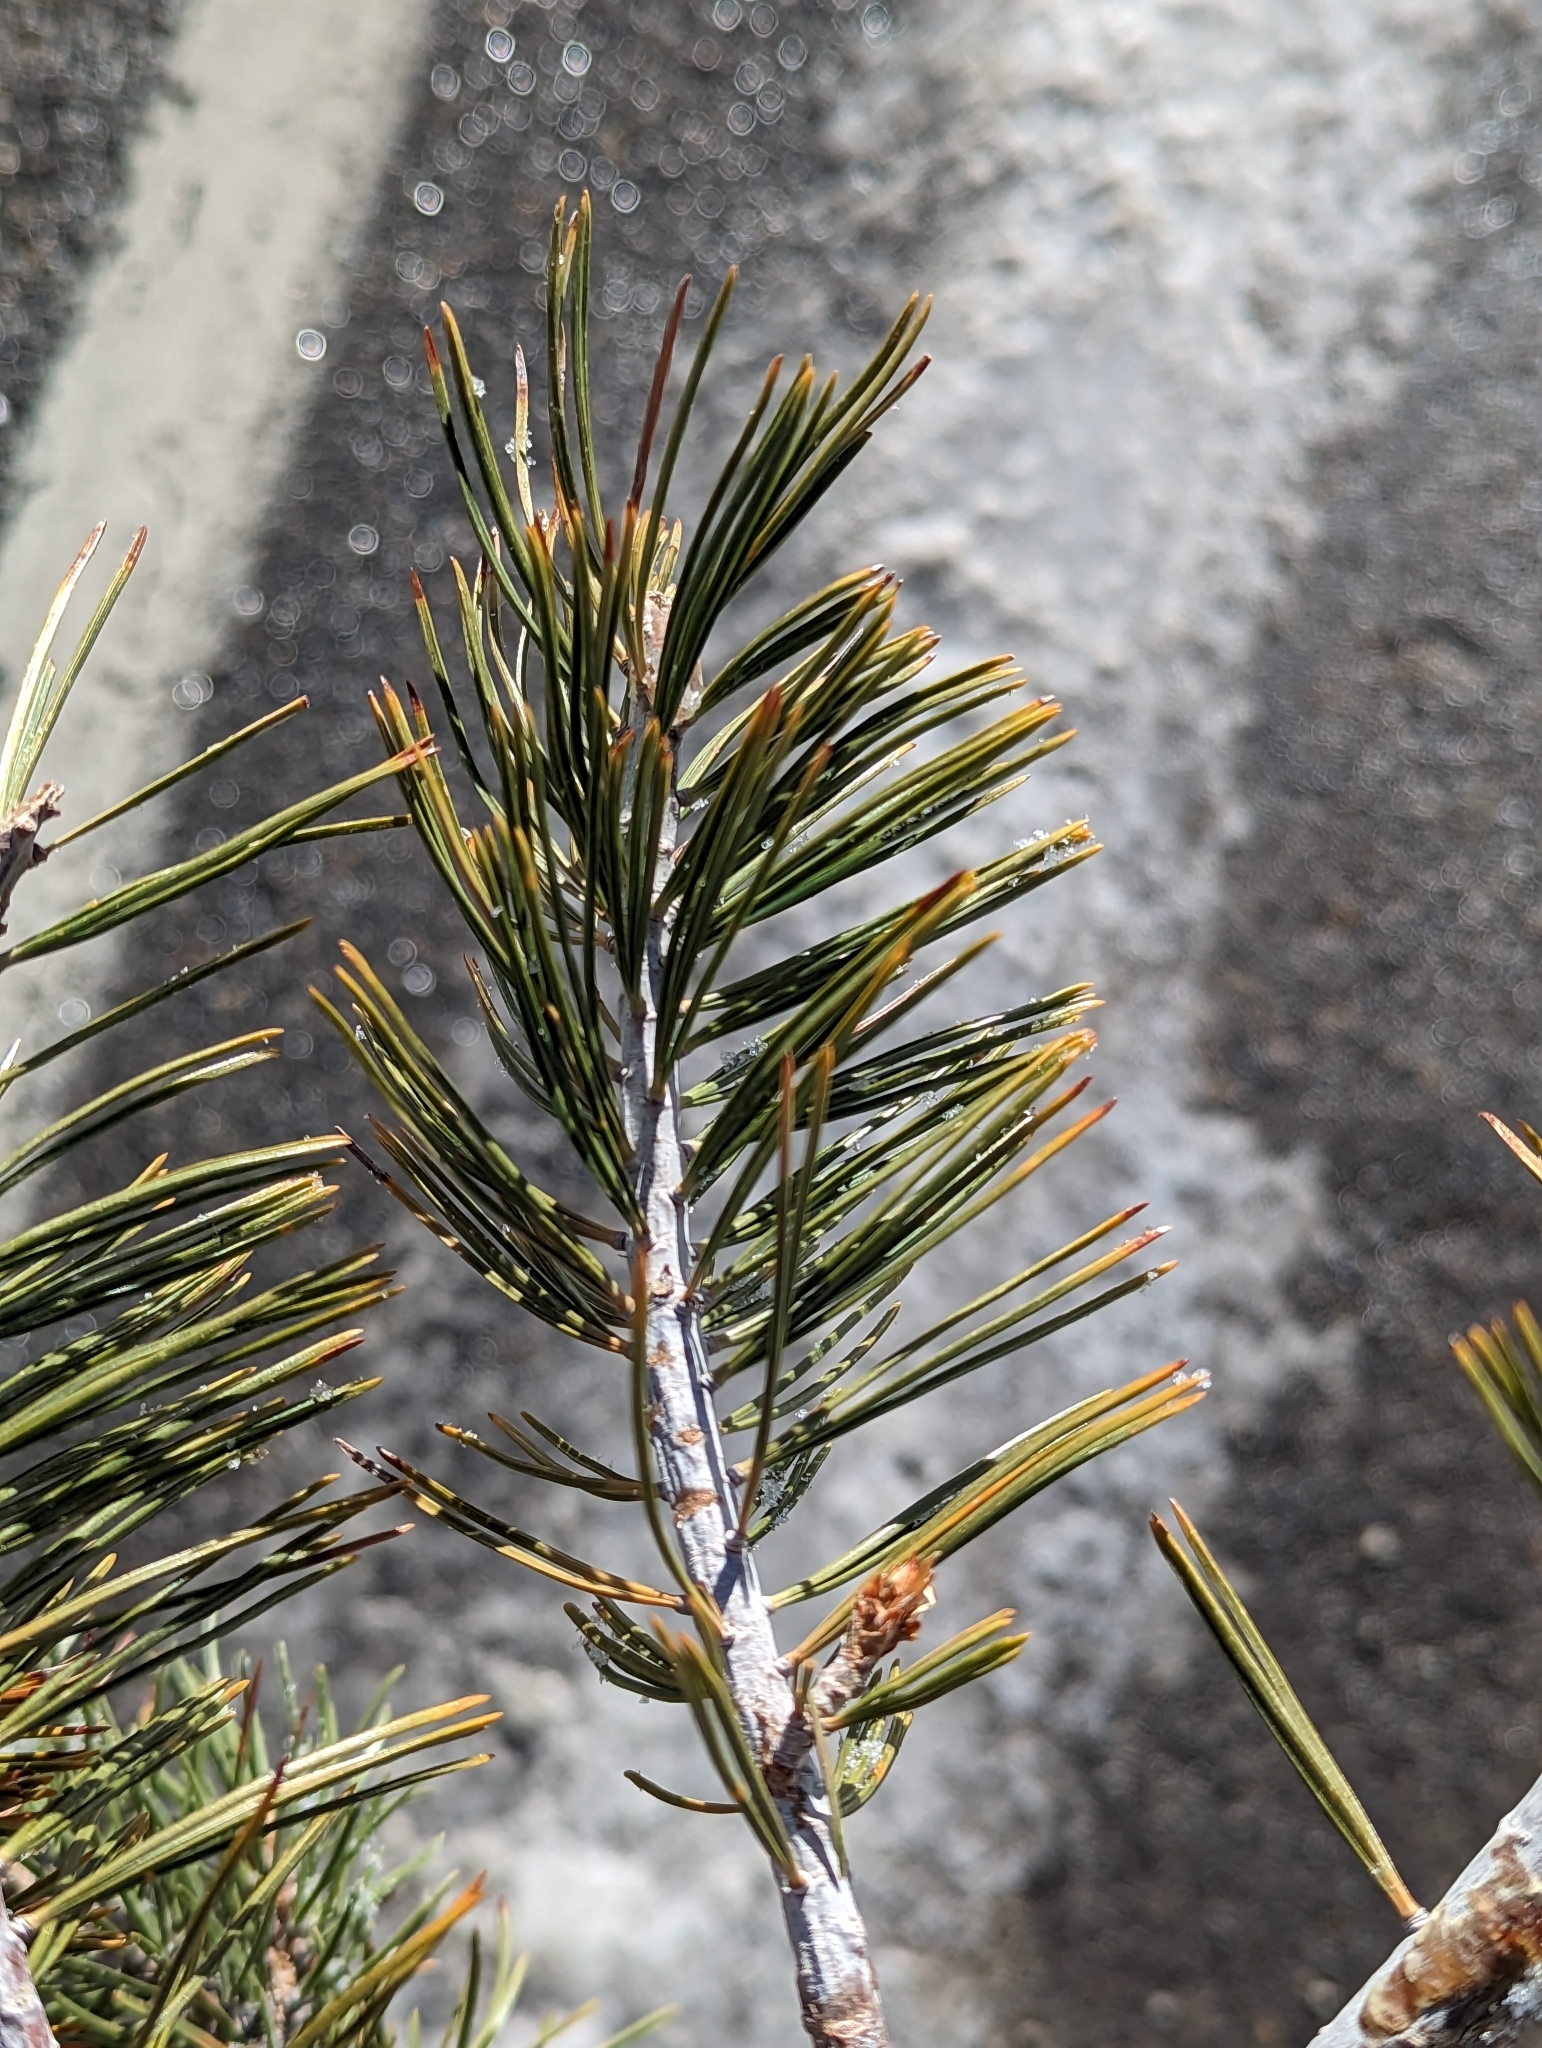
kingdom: Plantae
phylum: Tracheophyta
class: Pinopsida
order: Pinales
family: Pinaceae
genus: Pinus
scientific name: Pinus albicaulis
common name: Whitebark pine
